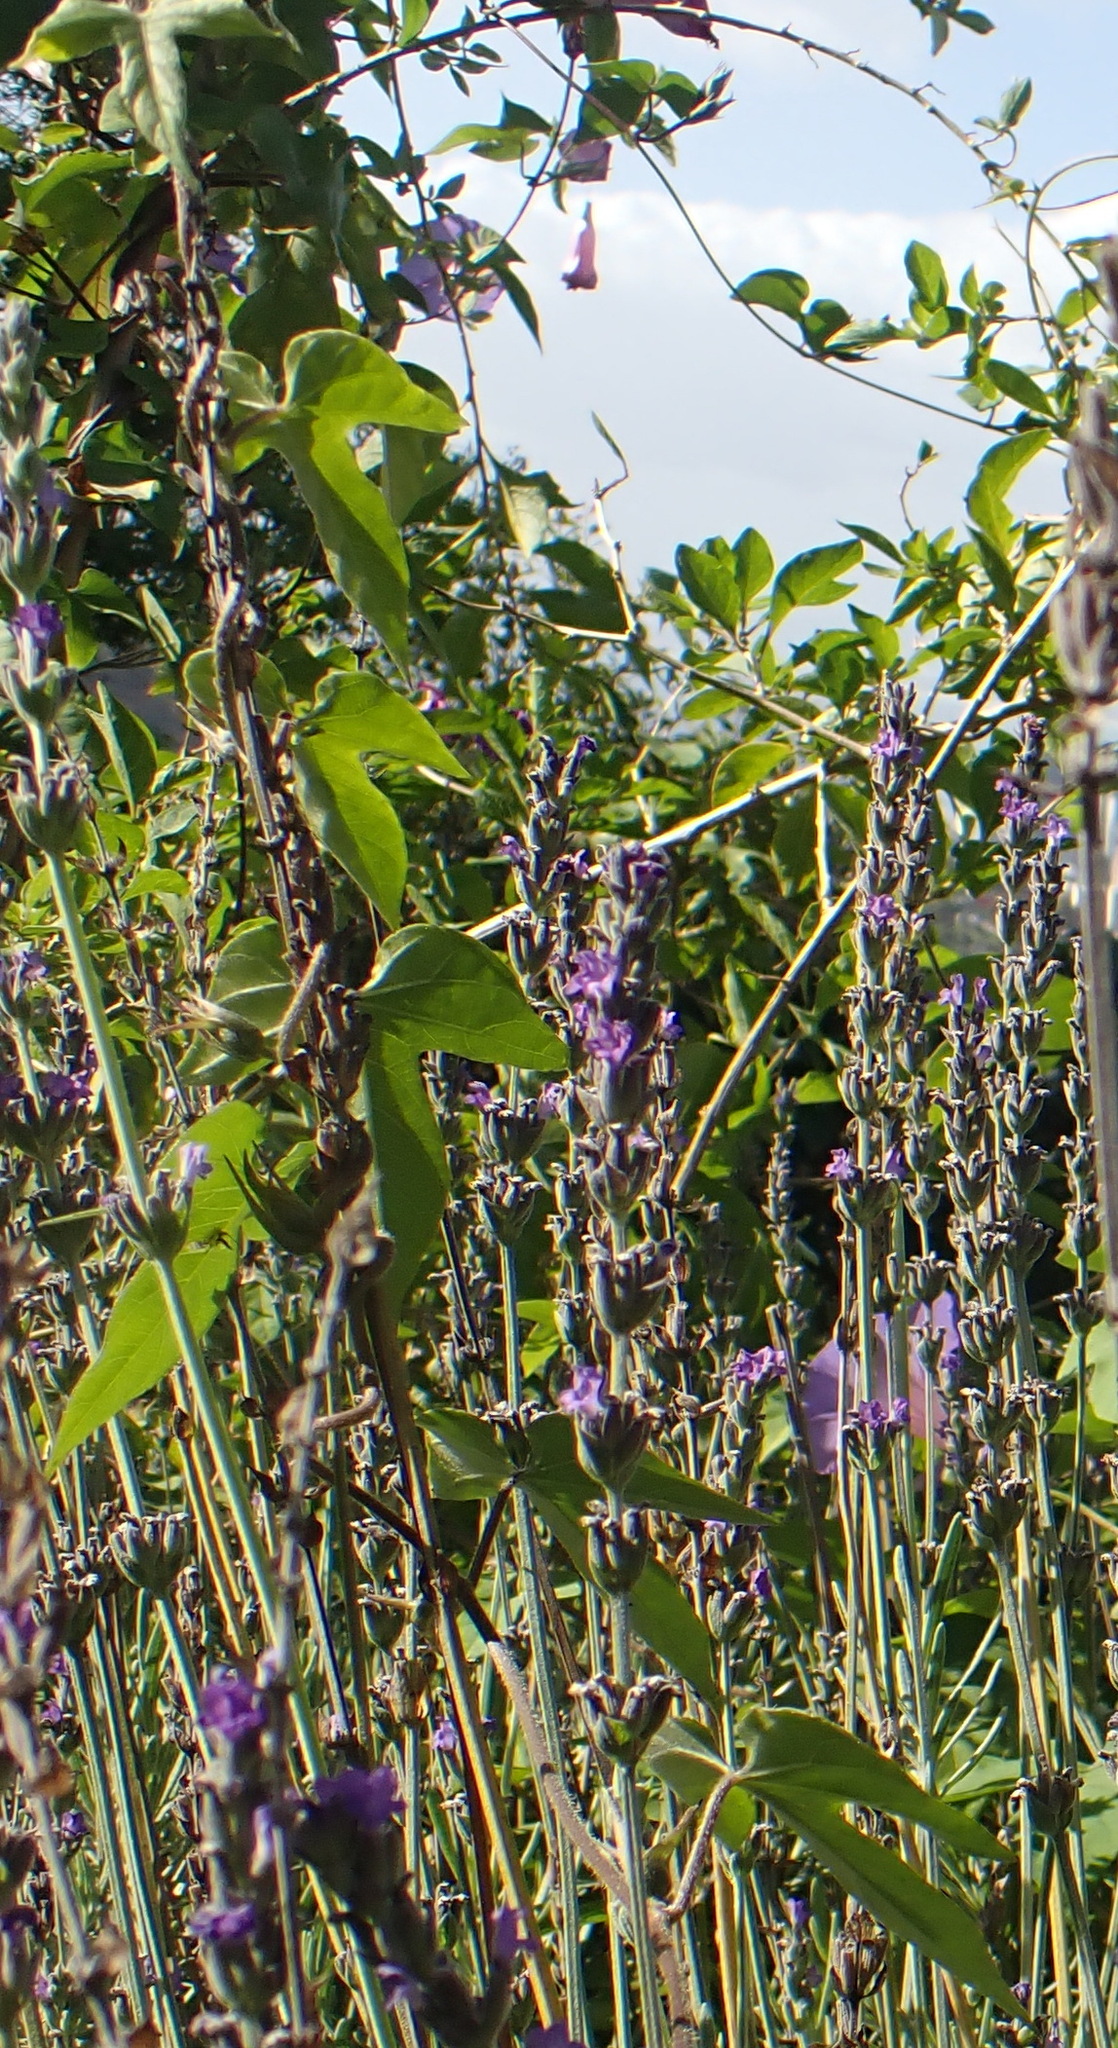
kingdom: Plantae
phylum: Tracheophyta
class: Magnoliopsida
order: Solanales
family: Convolvulaceae
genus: Ipomoea
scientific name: Ipomoea indica
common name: Blue dawnflower
